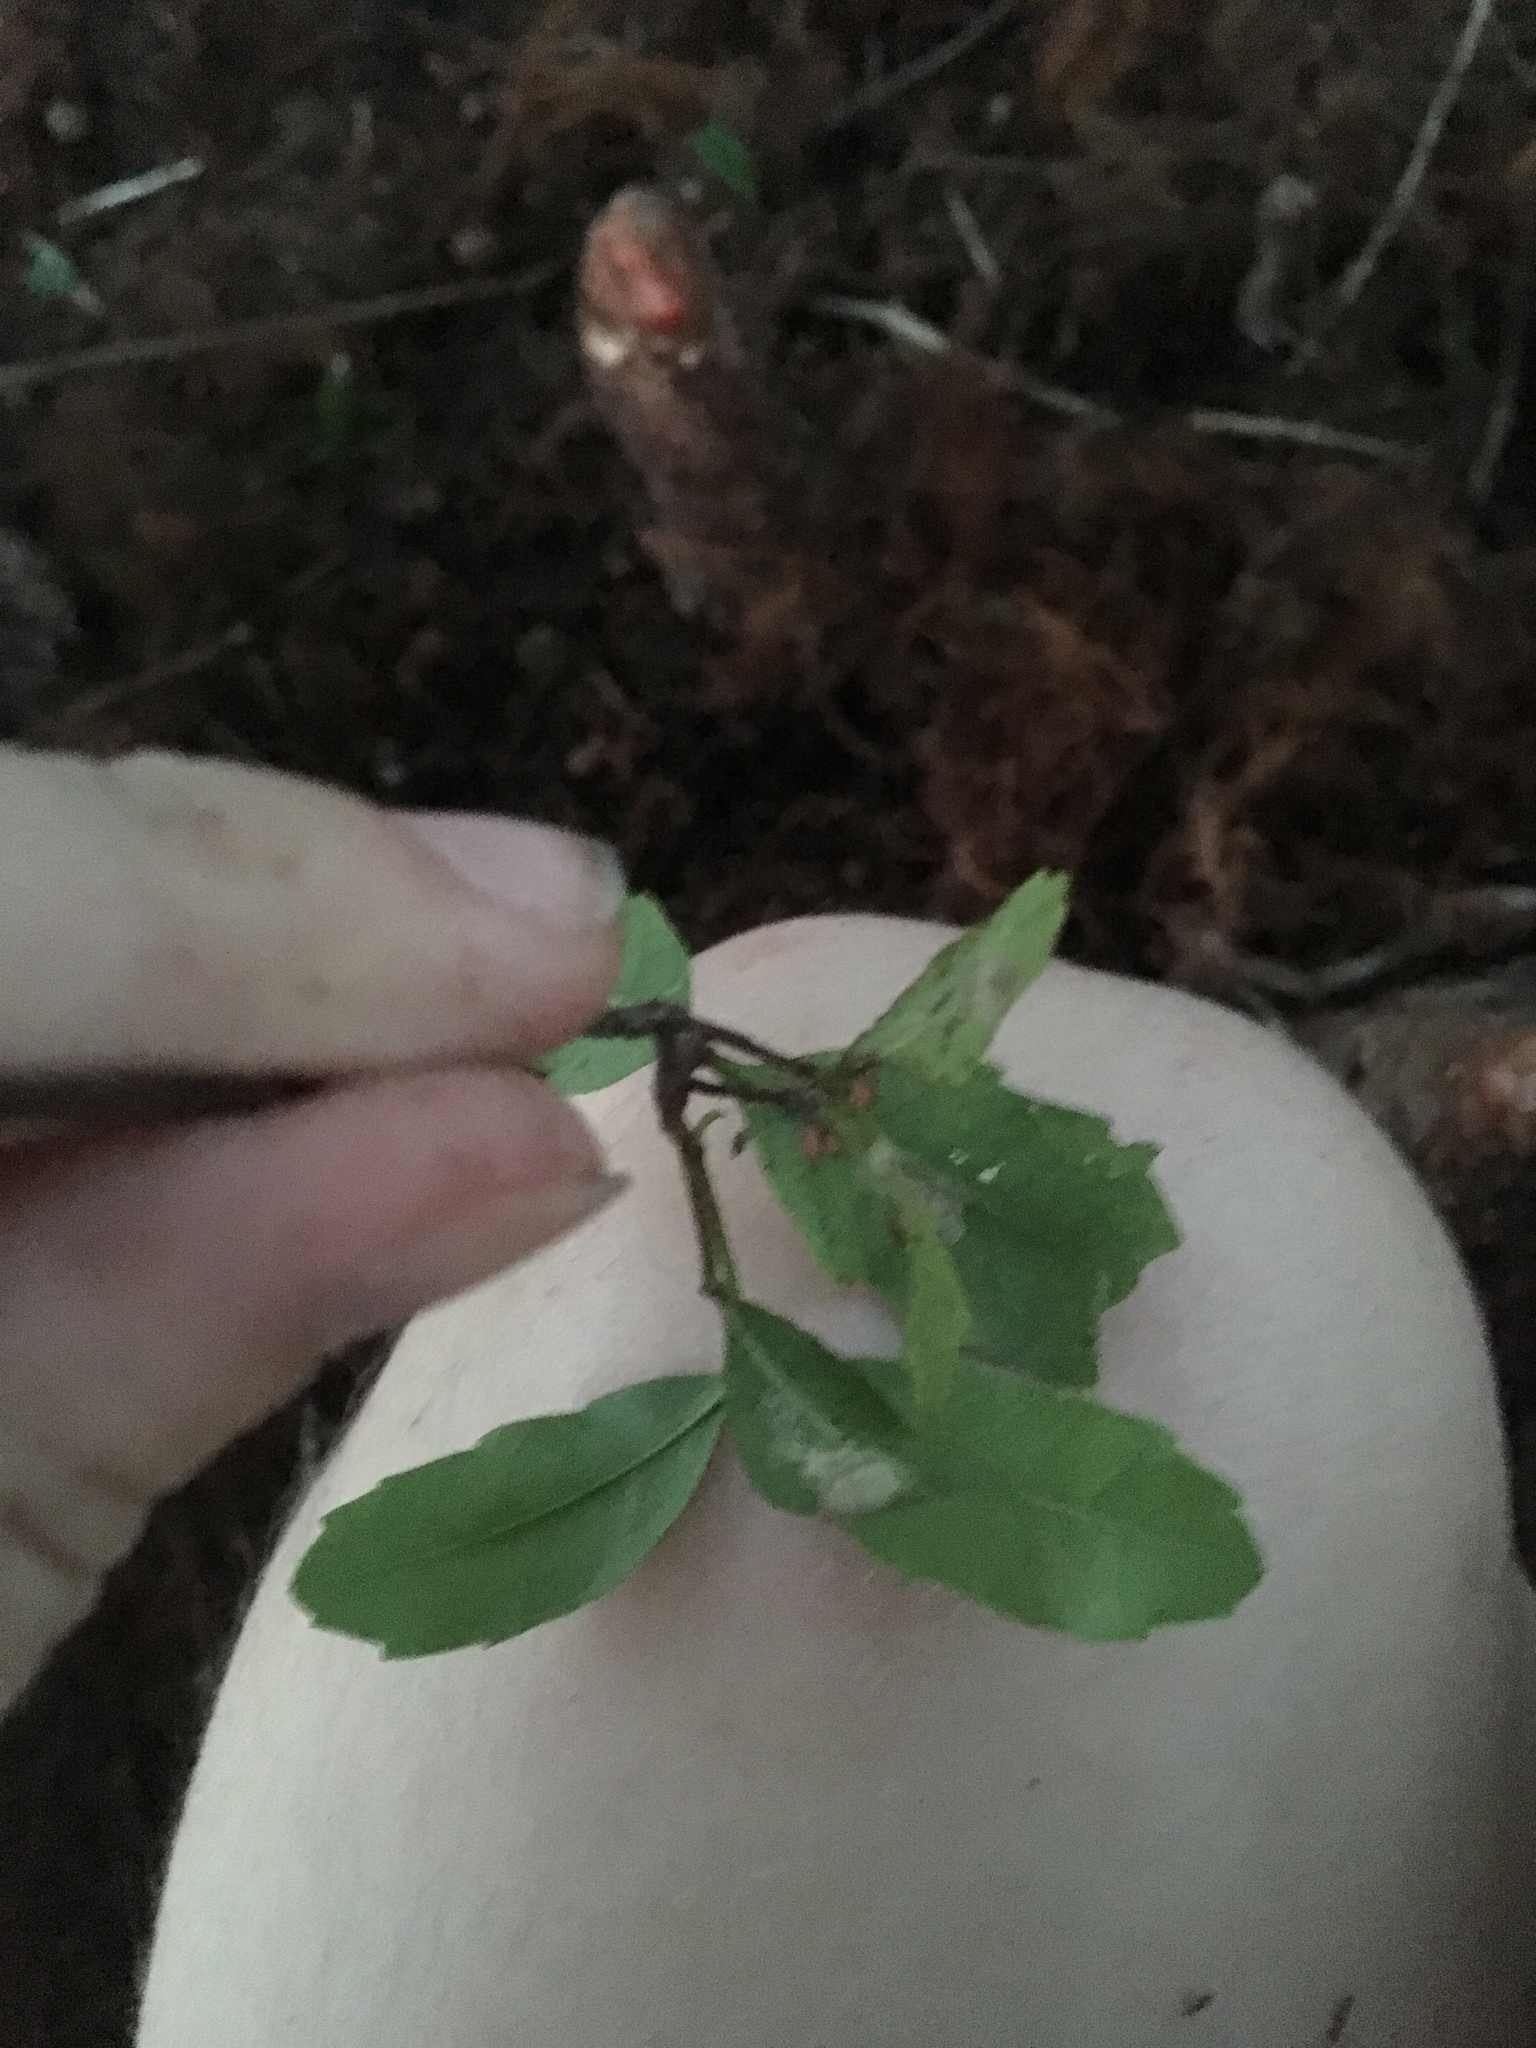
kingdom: Plantae
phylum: Tracheophyta
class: Magnoliopsida
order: Sapindales
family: Sapindaceae
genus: Cupaniopsis
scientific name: Cupaniopsis anacardioides
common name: Carrotwood
